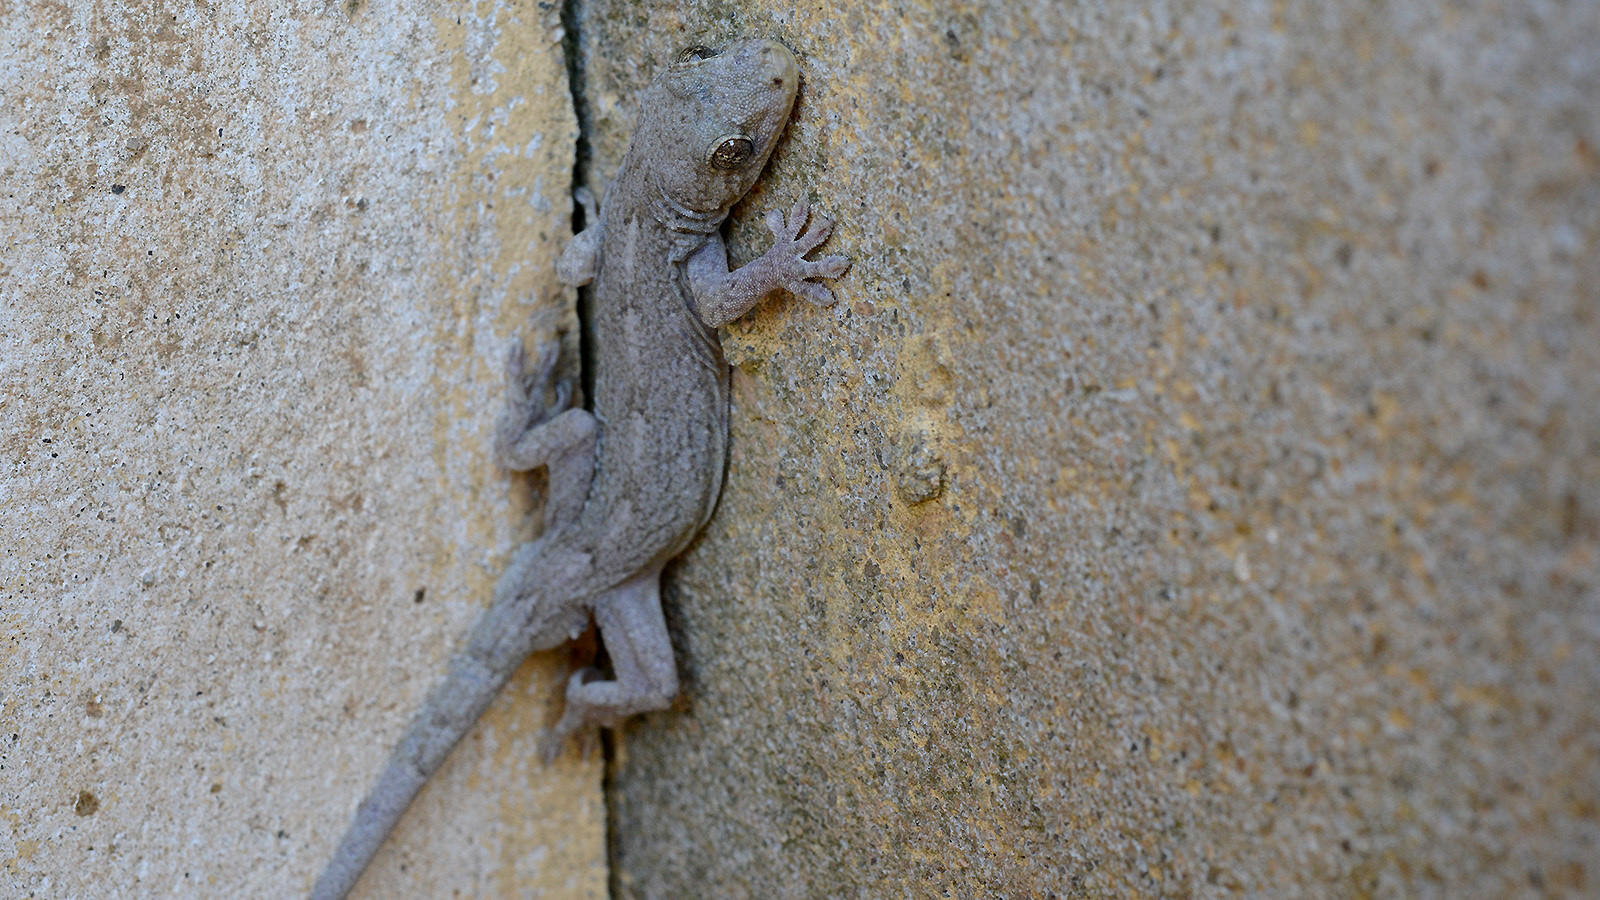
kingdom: Animalia
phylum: Chordata
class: Squamata
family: Gekkonidae
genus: Gekko
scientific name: Gekko japonicus
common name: Schlegel's japanese gecko
